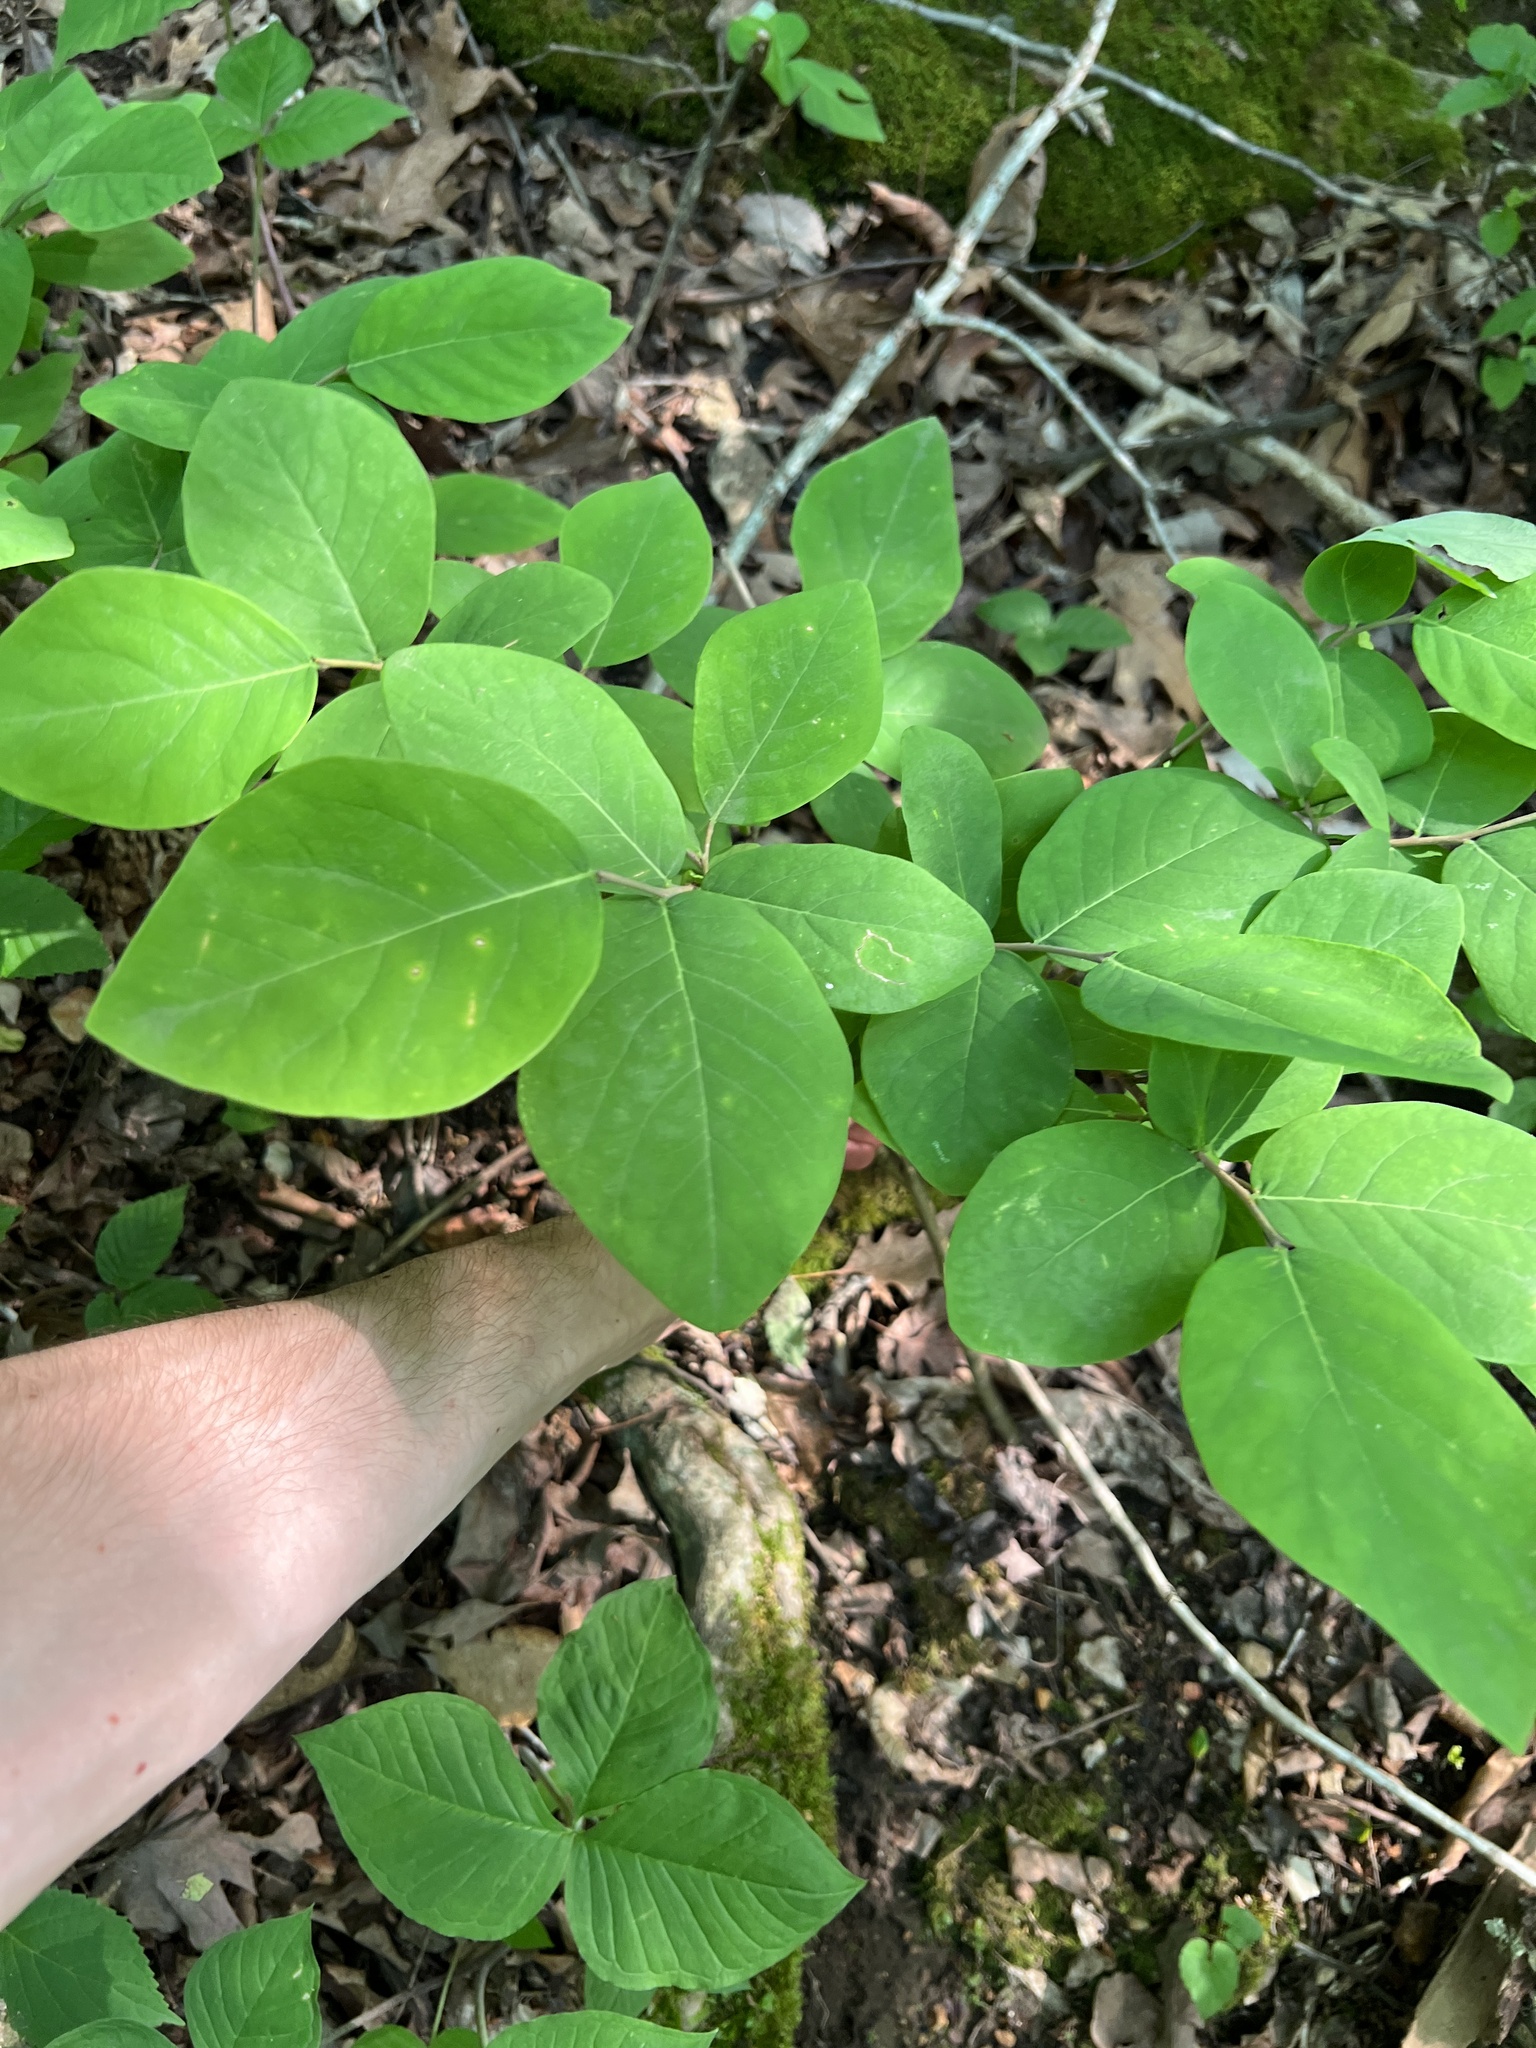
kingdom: Plantae
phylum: Tracheophyta
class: Magnoliopsida
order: Malvales
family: Thymelaeaceae
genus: Dirca
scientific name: Dirca palustris
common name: Leatherwood
